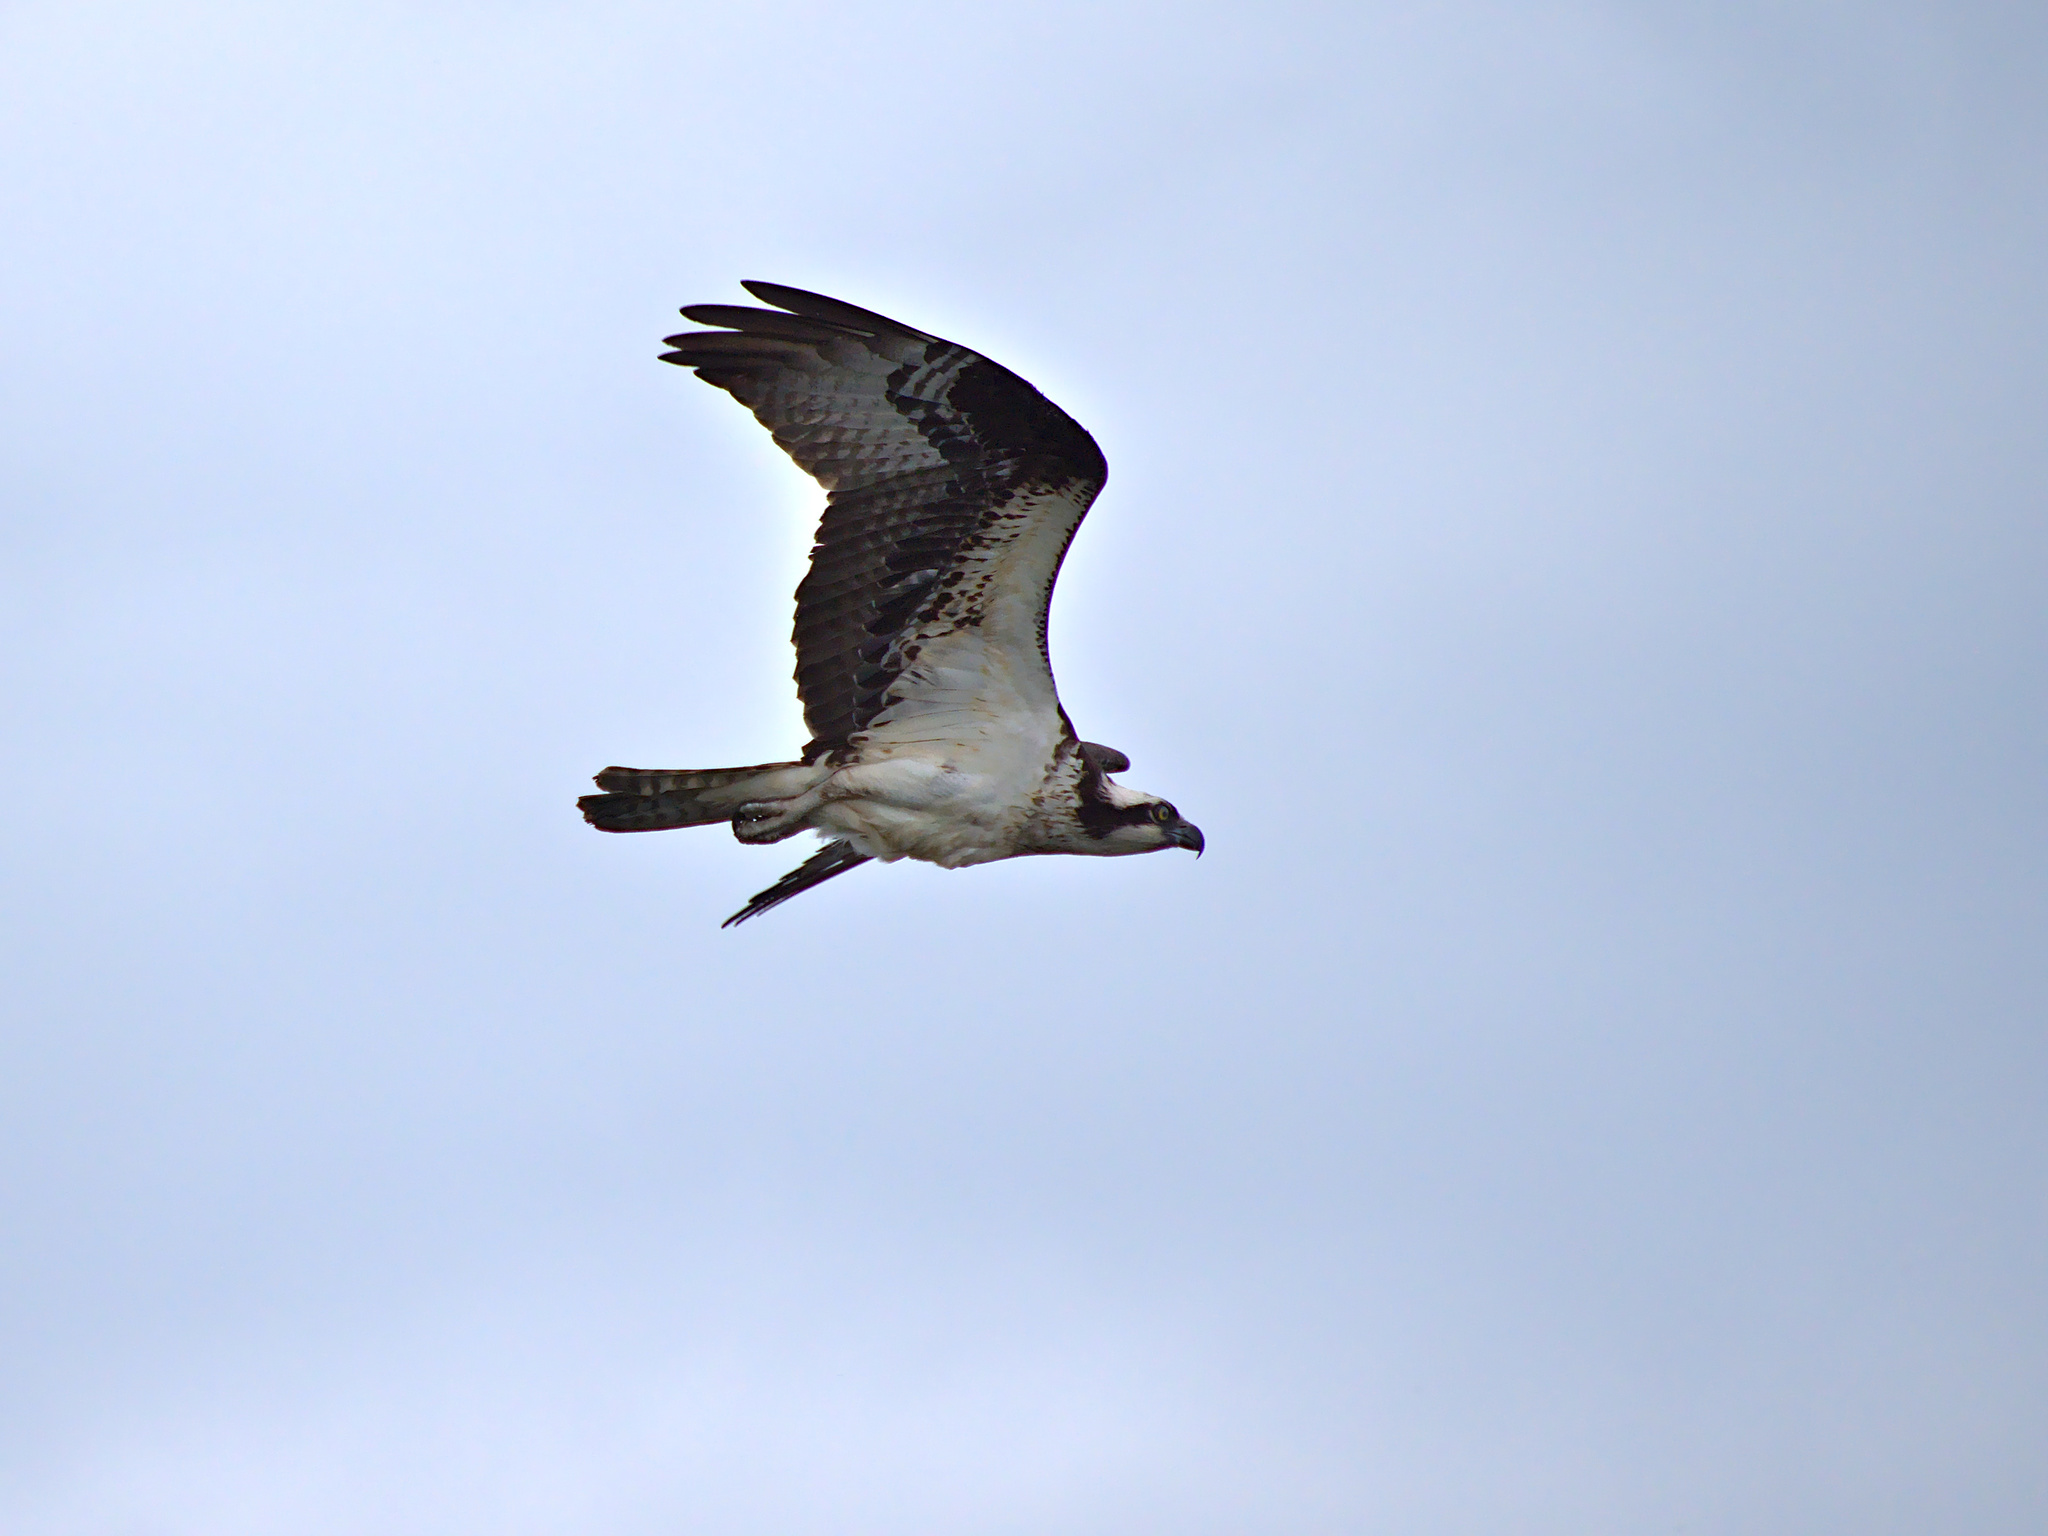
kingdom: Animalia
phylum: Chordata
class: Aves
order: Accipitriformes
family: Pandionidae
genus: Pandion
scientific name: Pandion haliaetus
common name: Osprey
